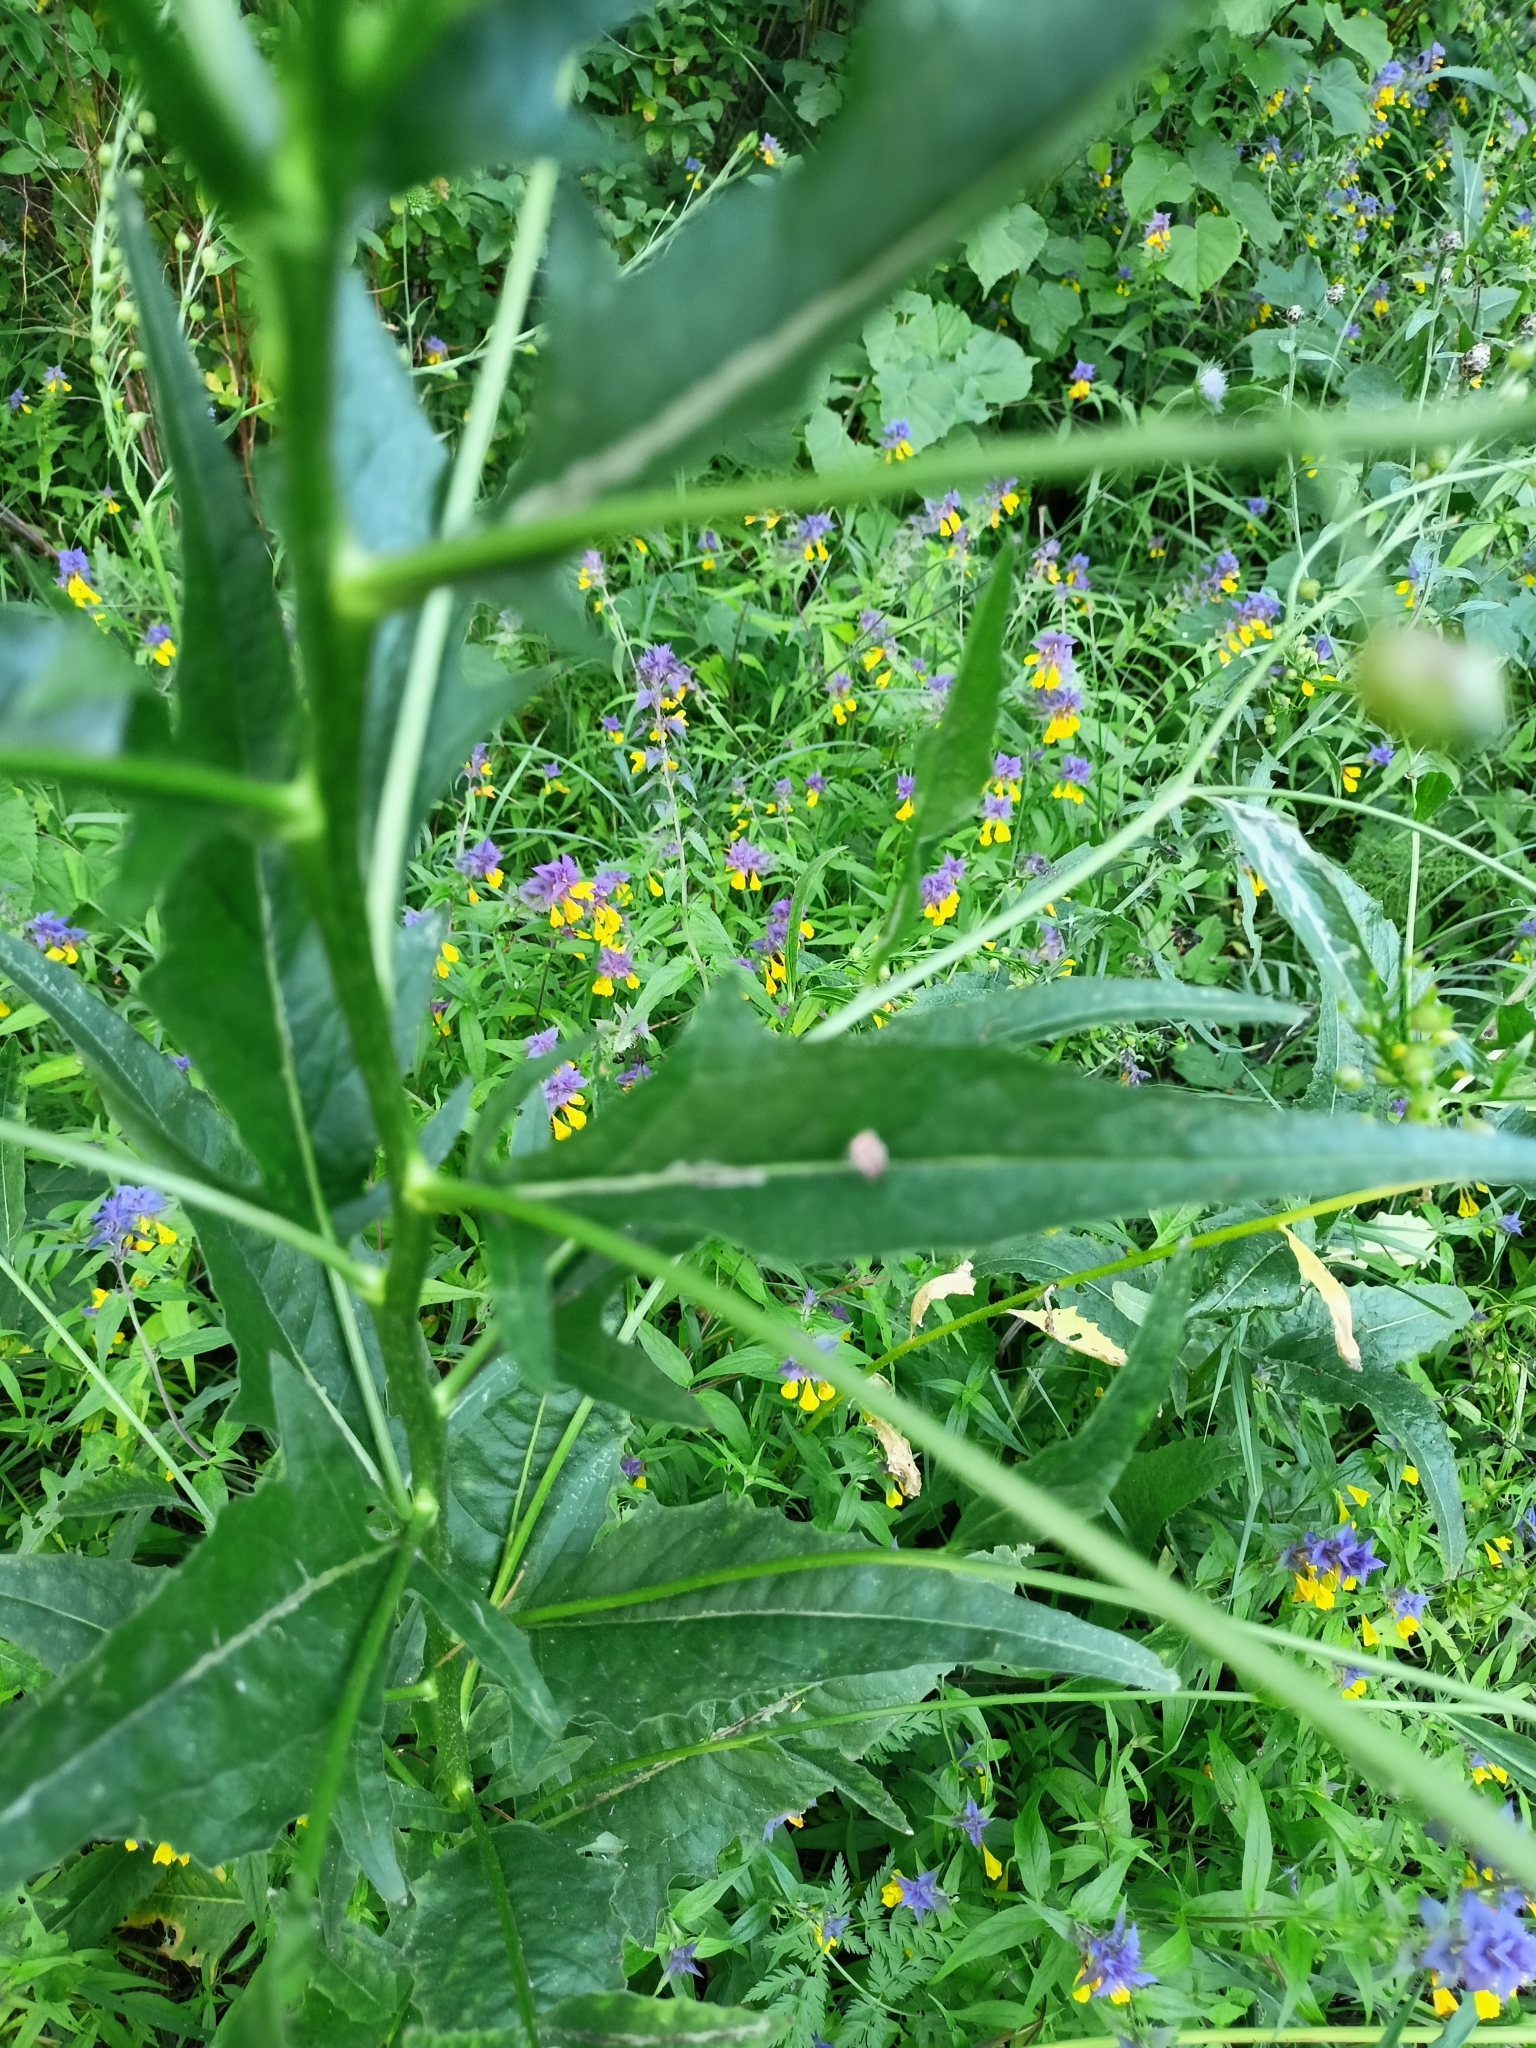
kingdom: Plantae
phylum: Tracheophyta
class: Magnoliopsida
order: Brassicales
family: Brassicaceae
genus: Bunias
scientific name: Bunias orientalis
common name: Warty-cabbage
